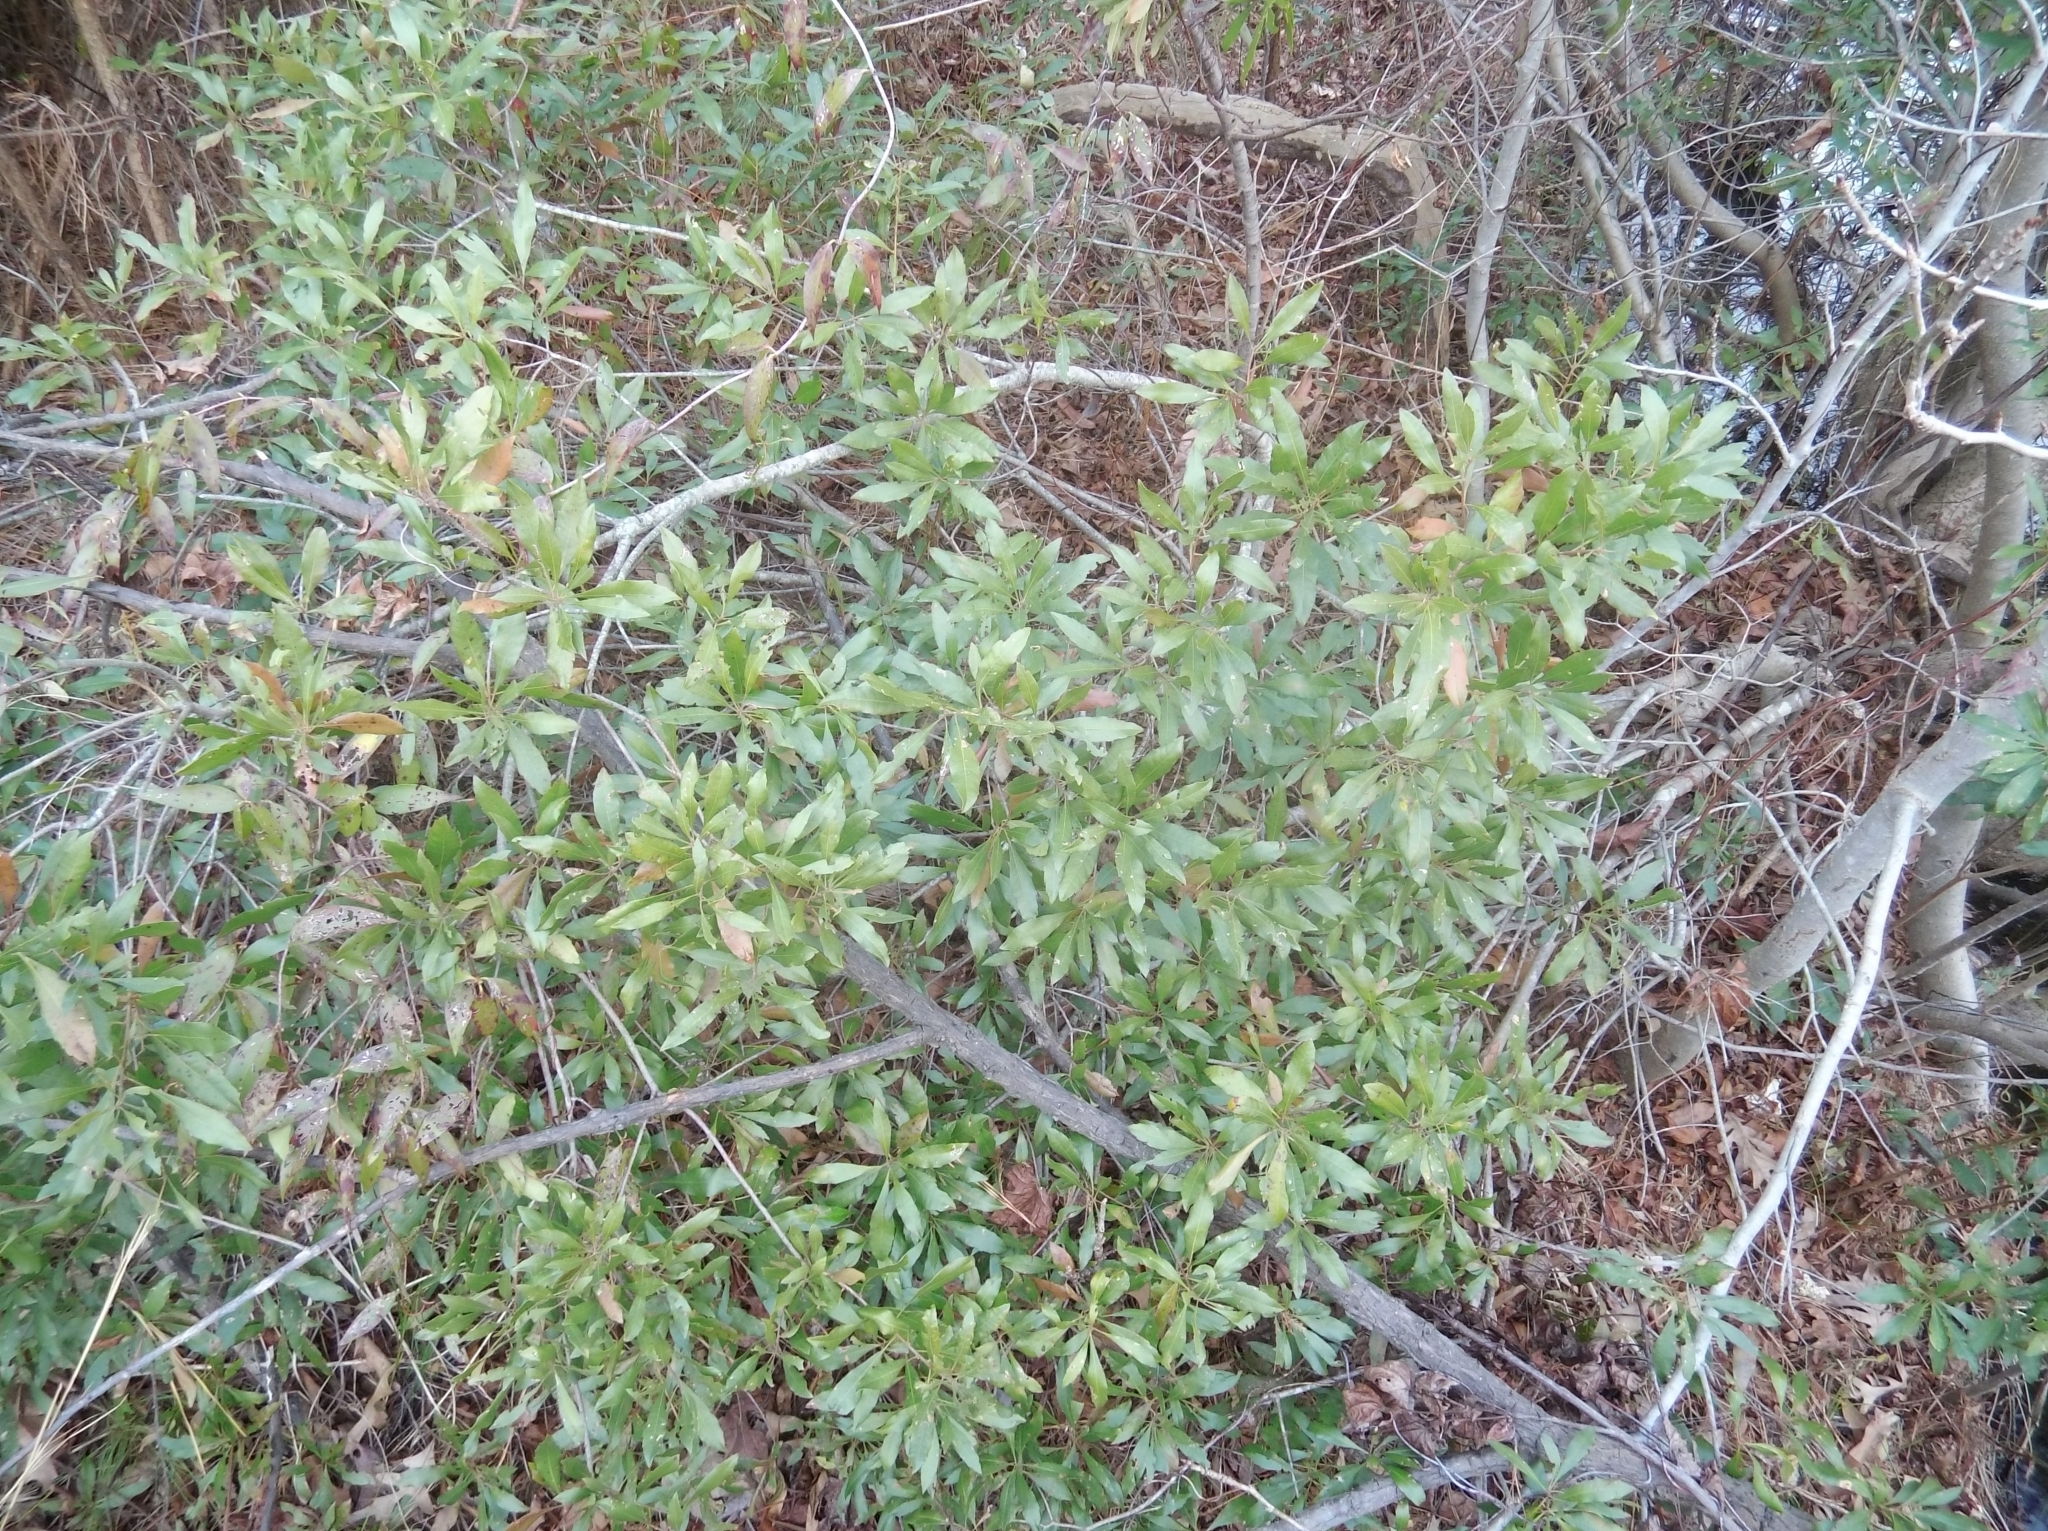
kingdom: Plantae
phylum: Tracheophyta
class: Magnoliopsida
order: Fagales
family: Myricaceae
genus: Morella
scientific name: Morella cerifera
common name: Wax myrtle
